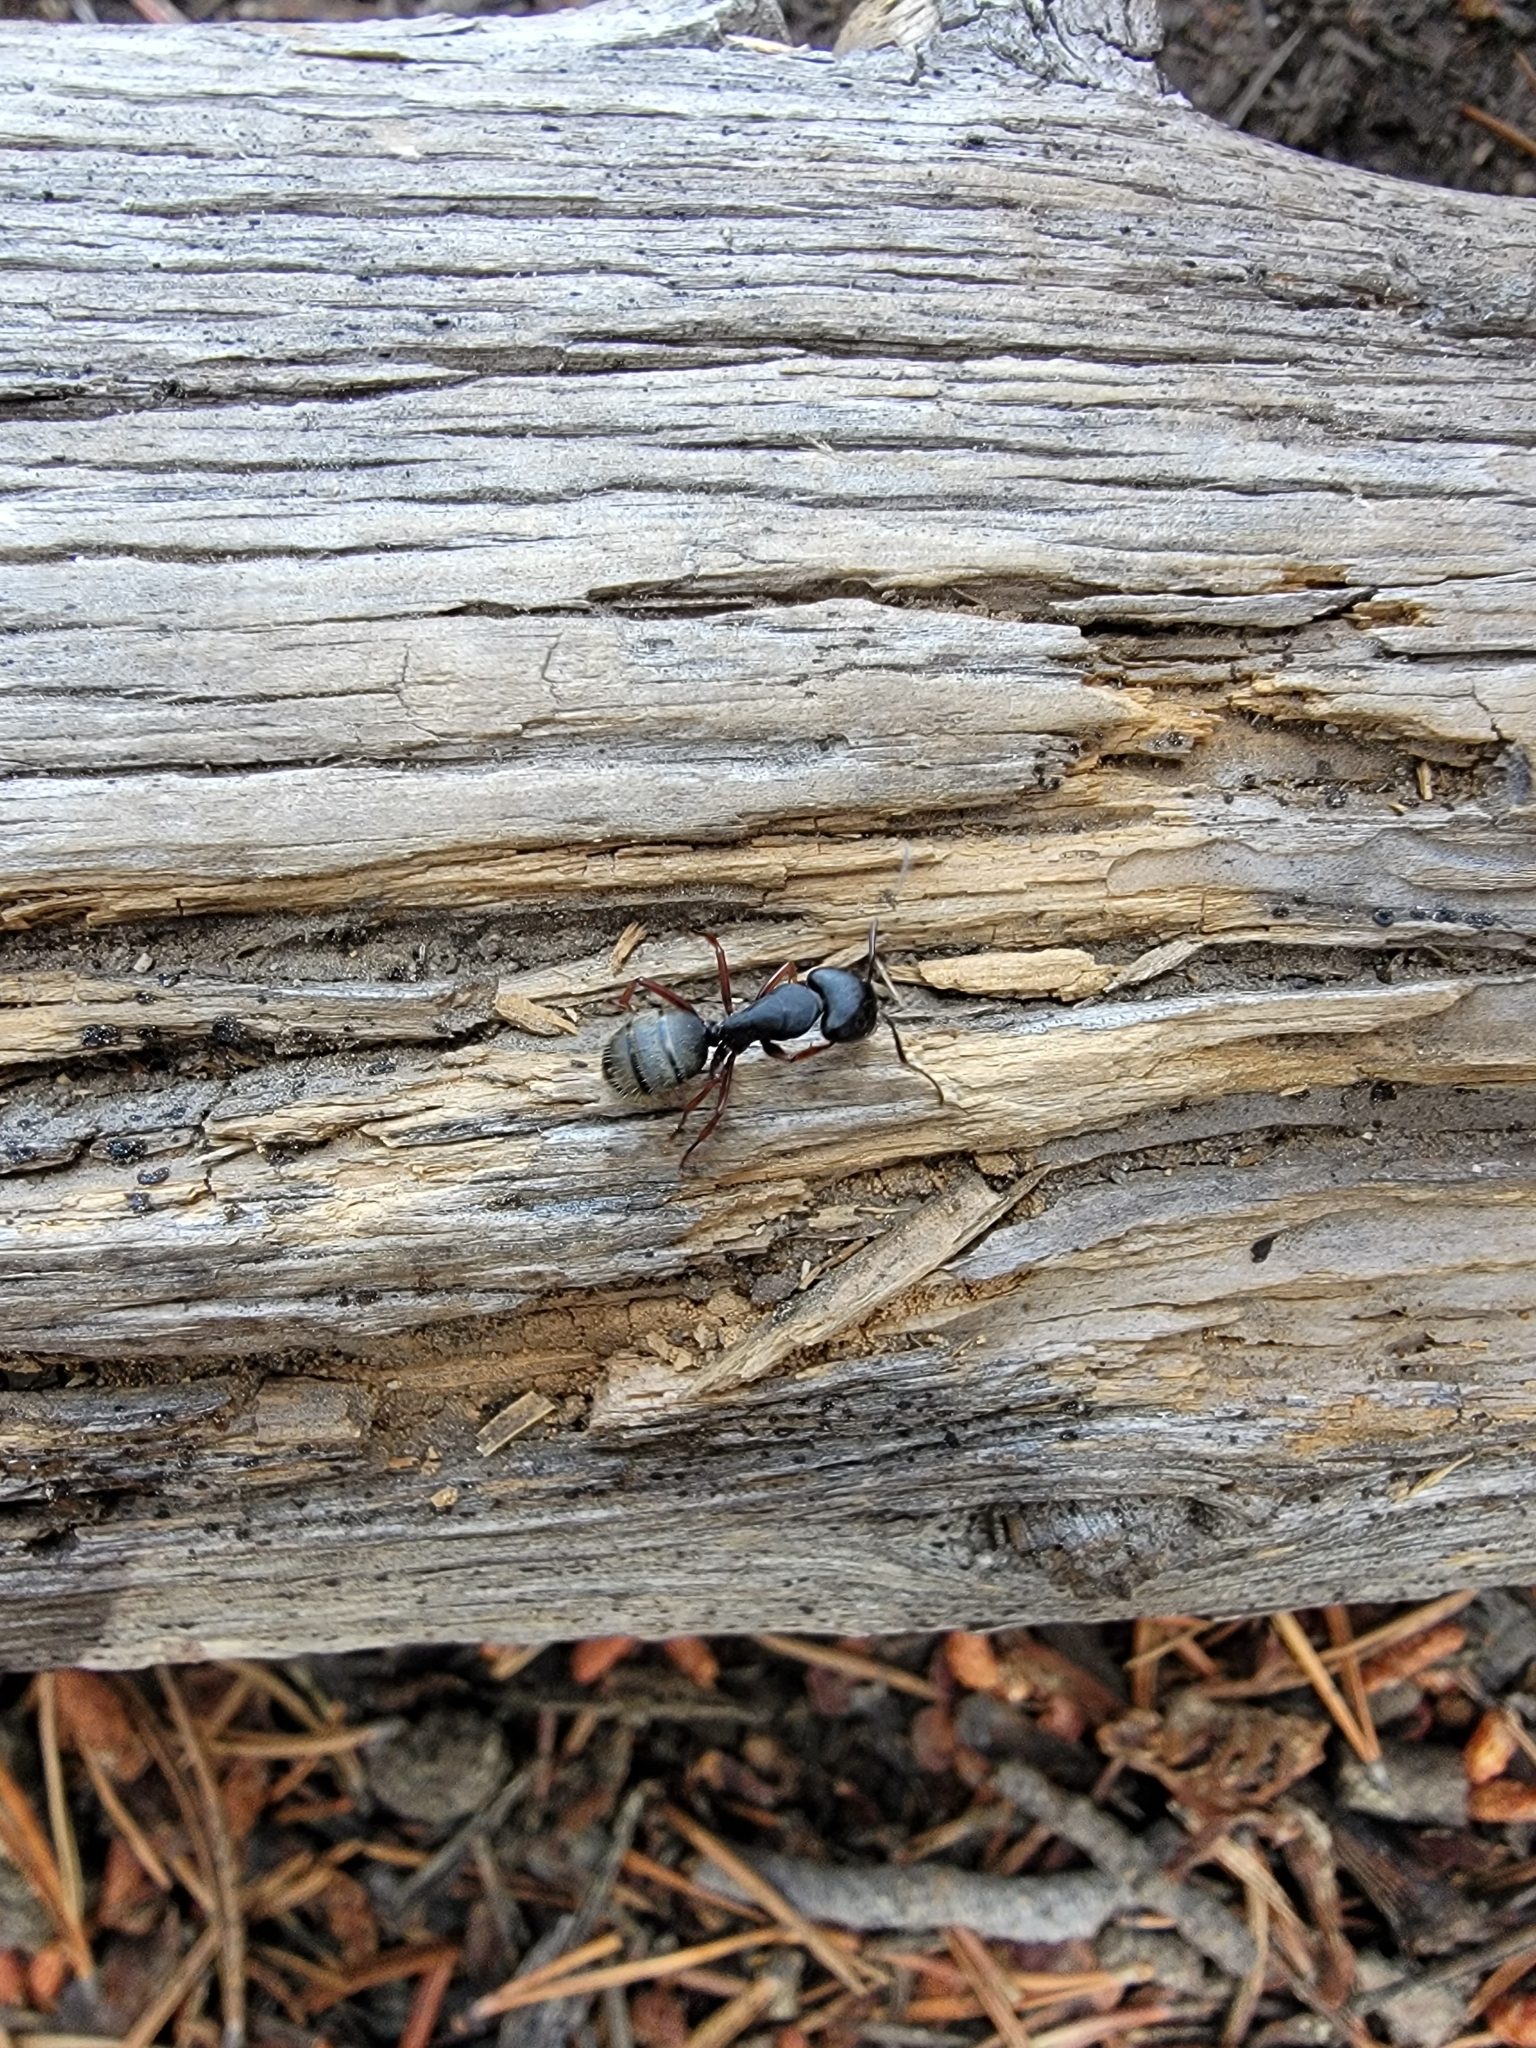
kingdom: Animalia
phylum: Arthropoda
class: Insecta
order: Hymenoptera
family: Formicidae
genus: Camponotus
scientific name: Camponotus modoc
